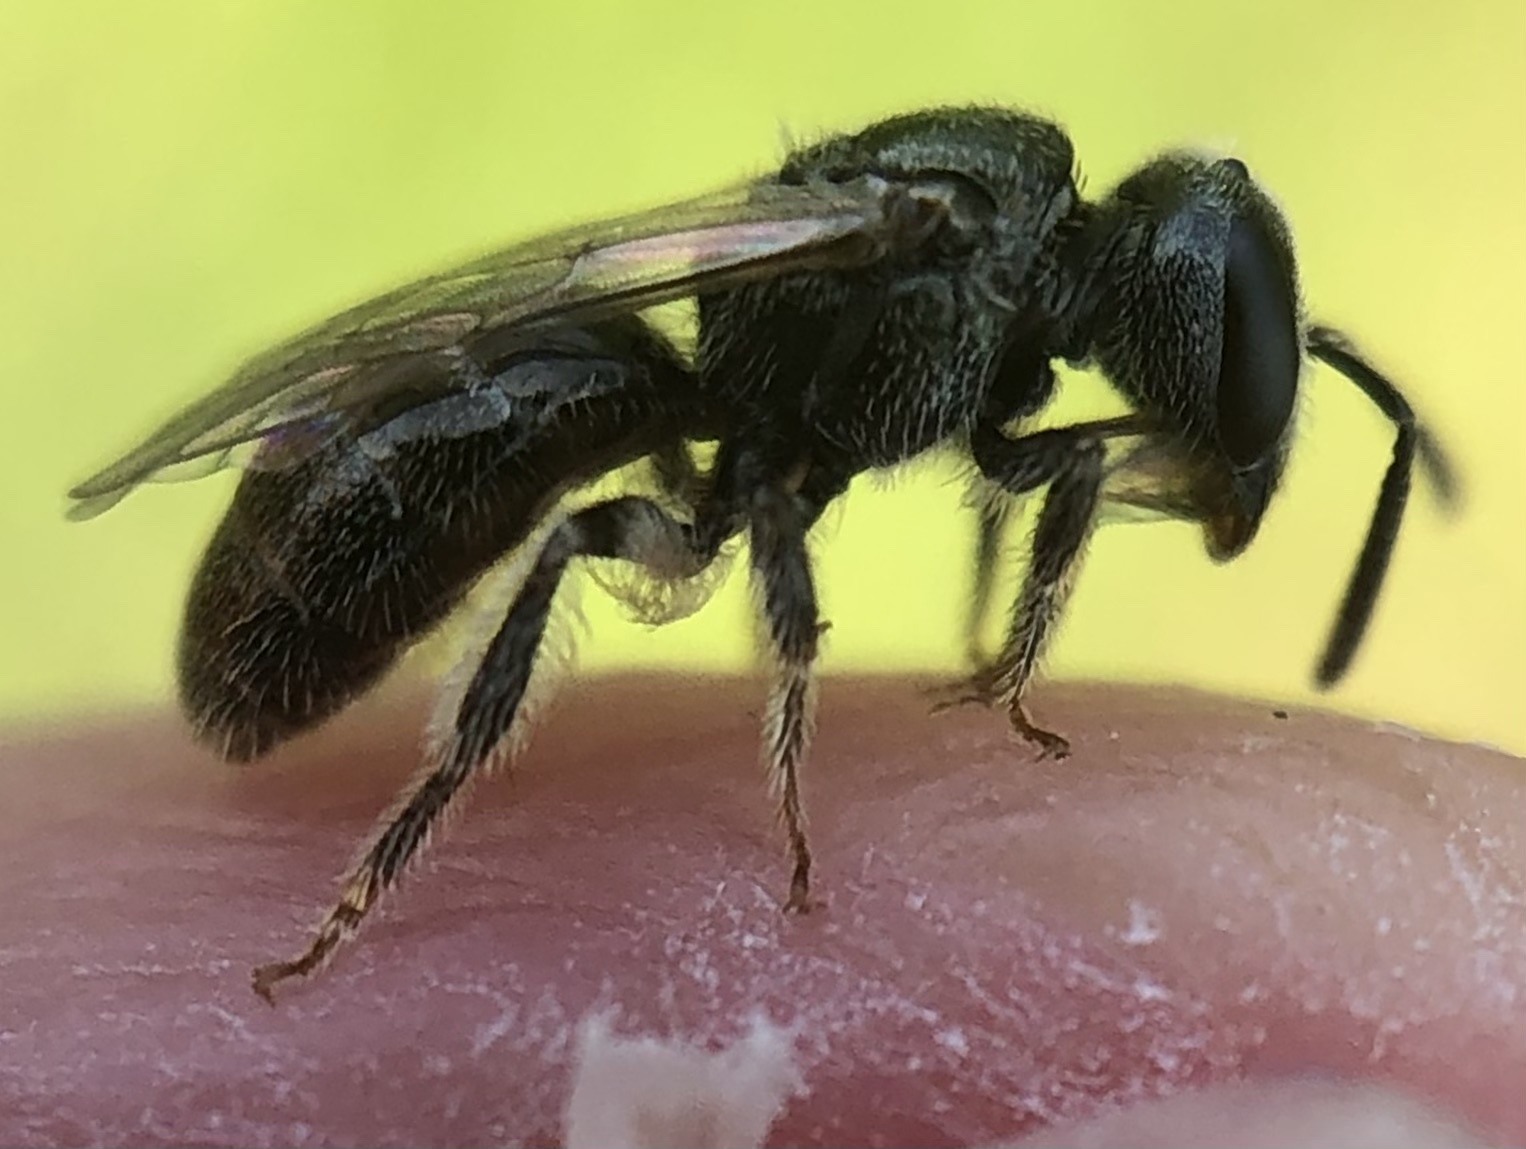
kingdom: Animalia
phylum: Arthropoda
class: Insecta
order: Hymenoptera
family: Halictidae
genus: Lasioglossum
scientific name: Lasioglossum imitatum
